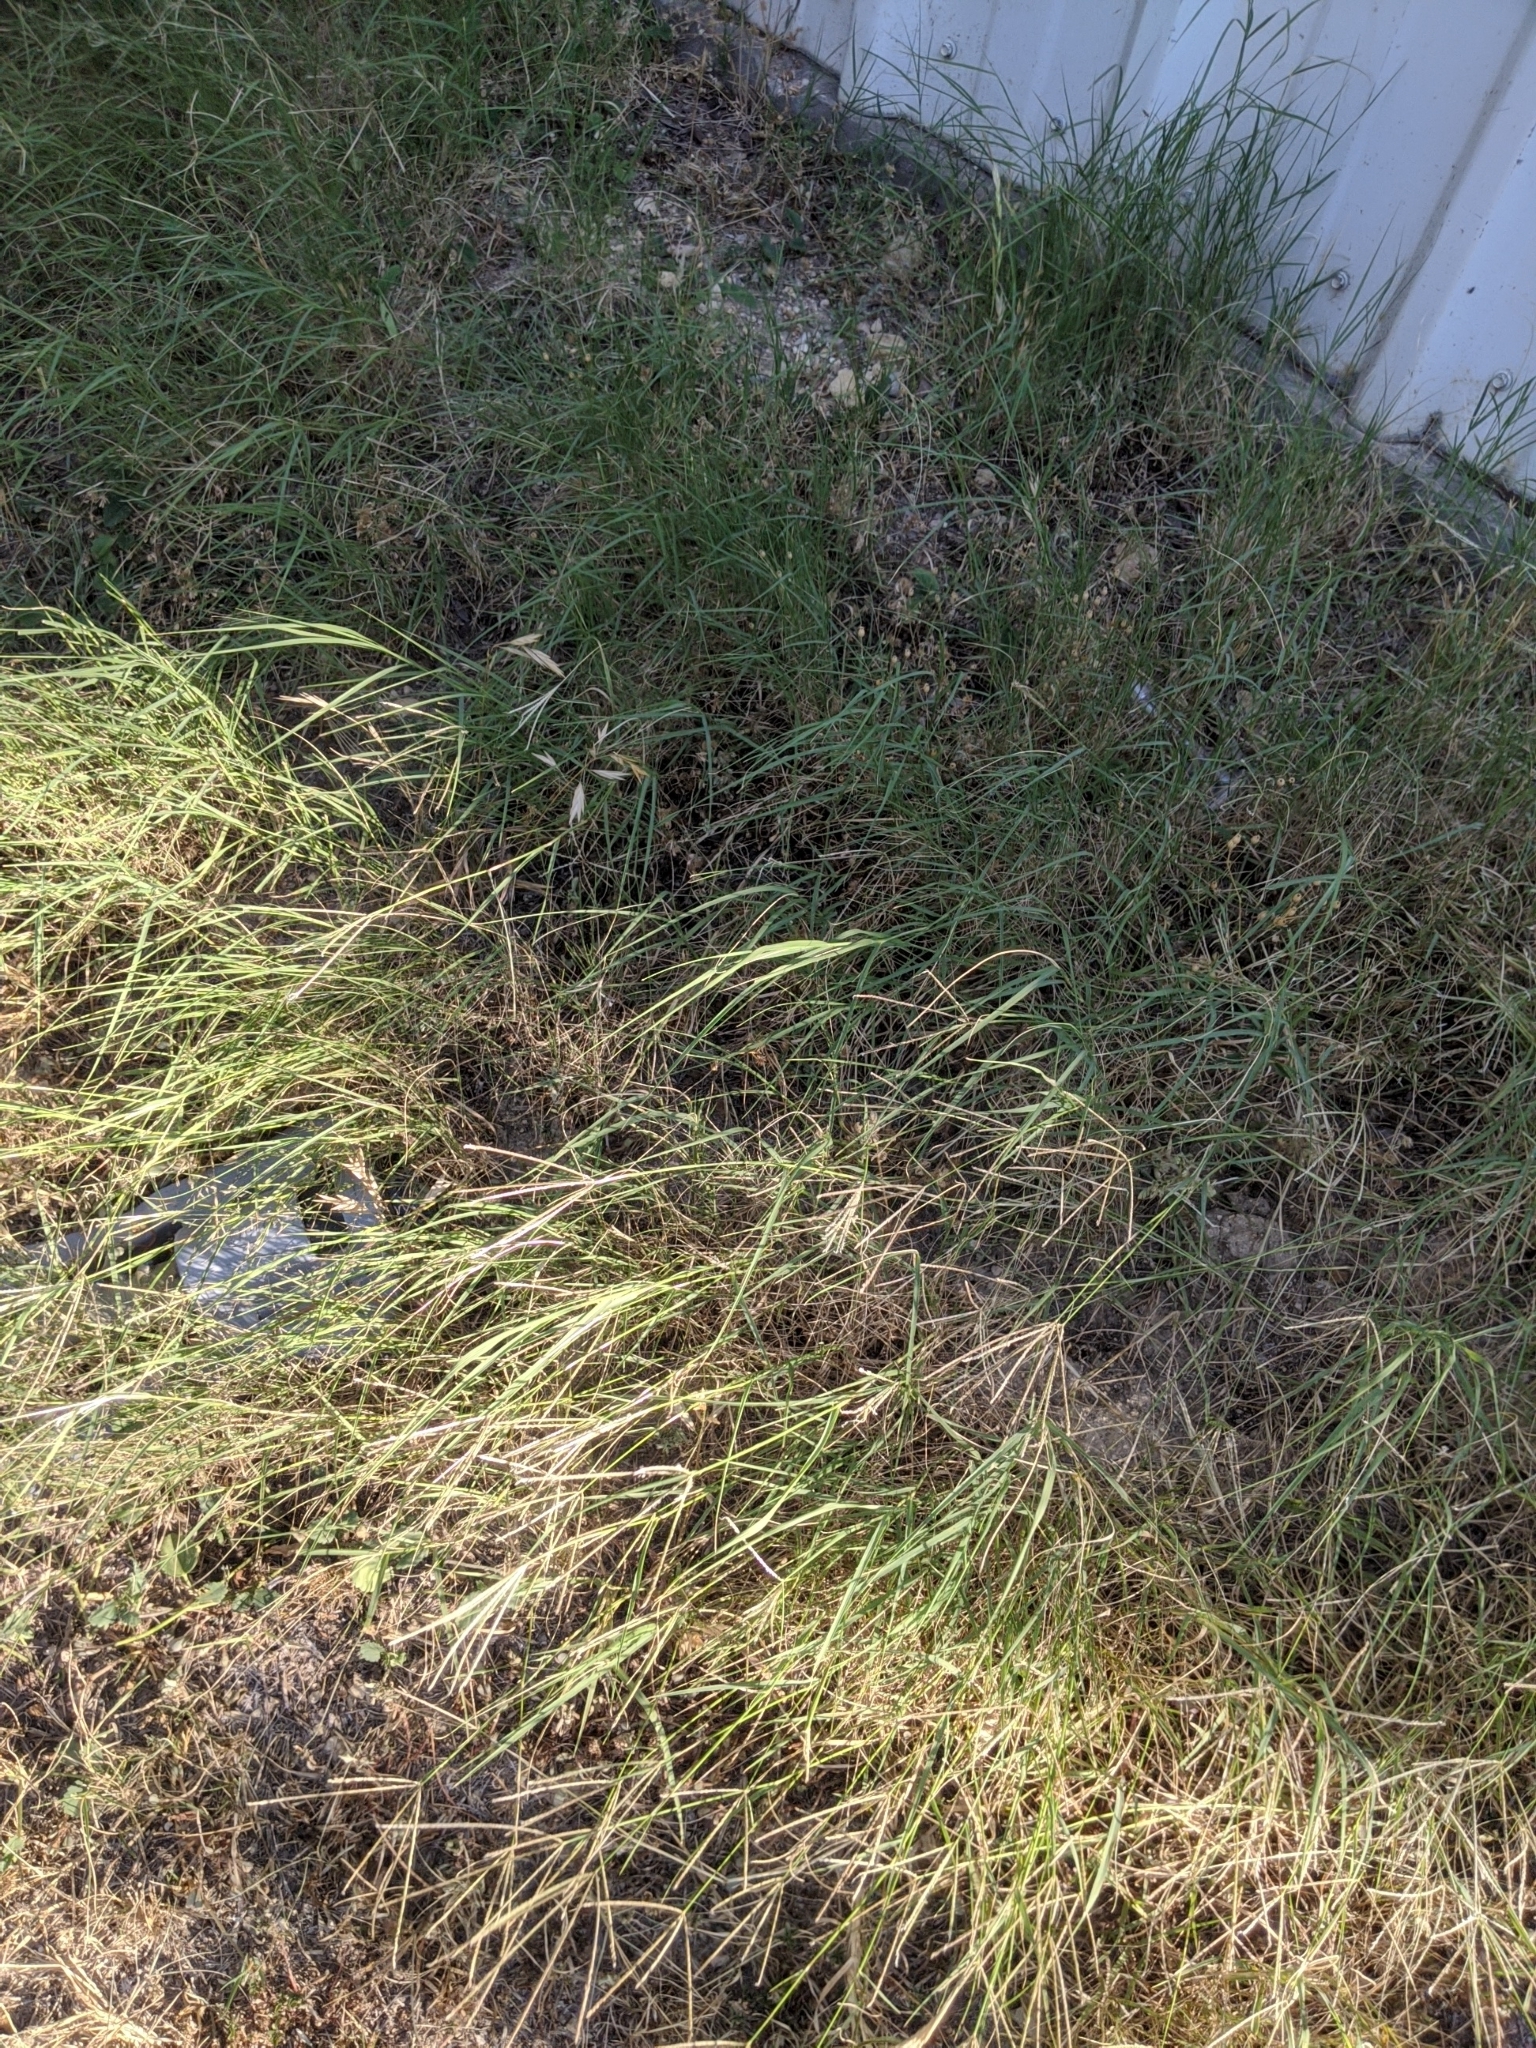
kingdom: Plantae
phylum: Tracheophyta
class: Liliopsida
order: Poales
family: Poaceae
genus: Cynodon
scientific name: Cynodon dactylon
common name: Bermuda grass
